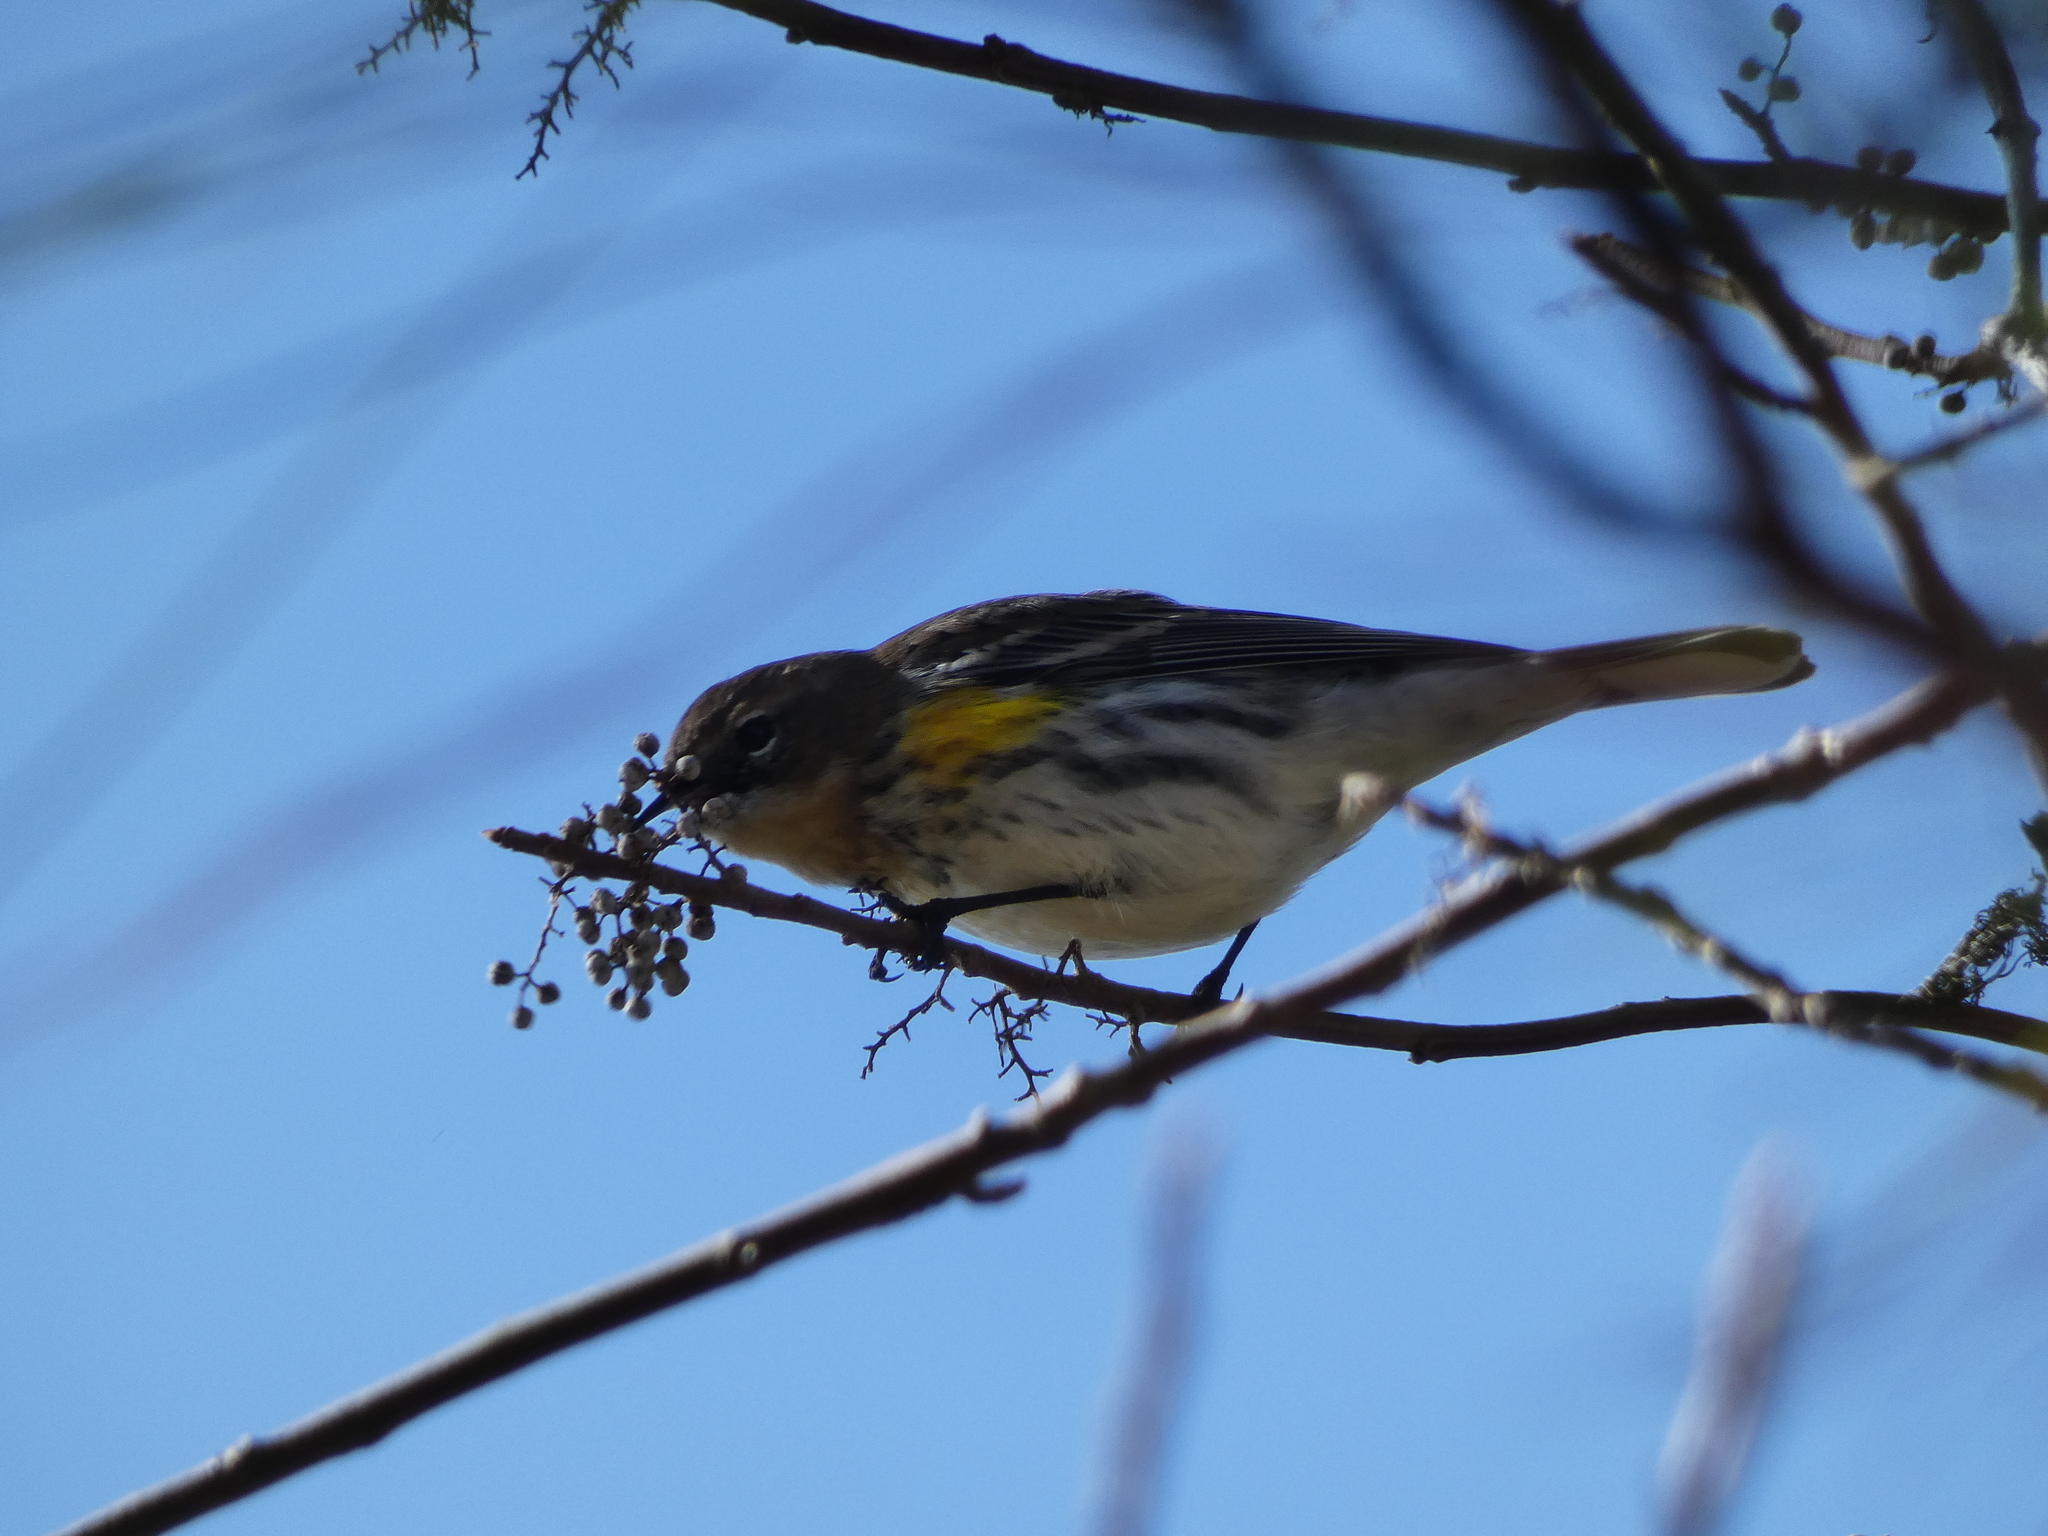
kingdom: Animalia
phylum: Chordata
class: Aves
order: Passeriformes
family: Parulidae
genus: Setophaga
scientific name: Setophaga coronata
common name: Myrtle warbler
